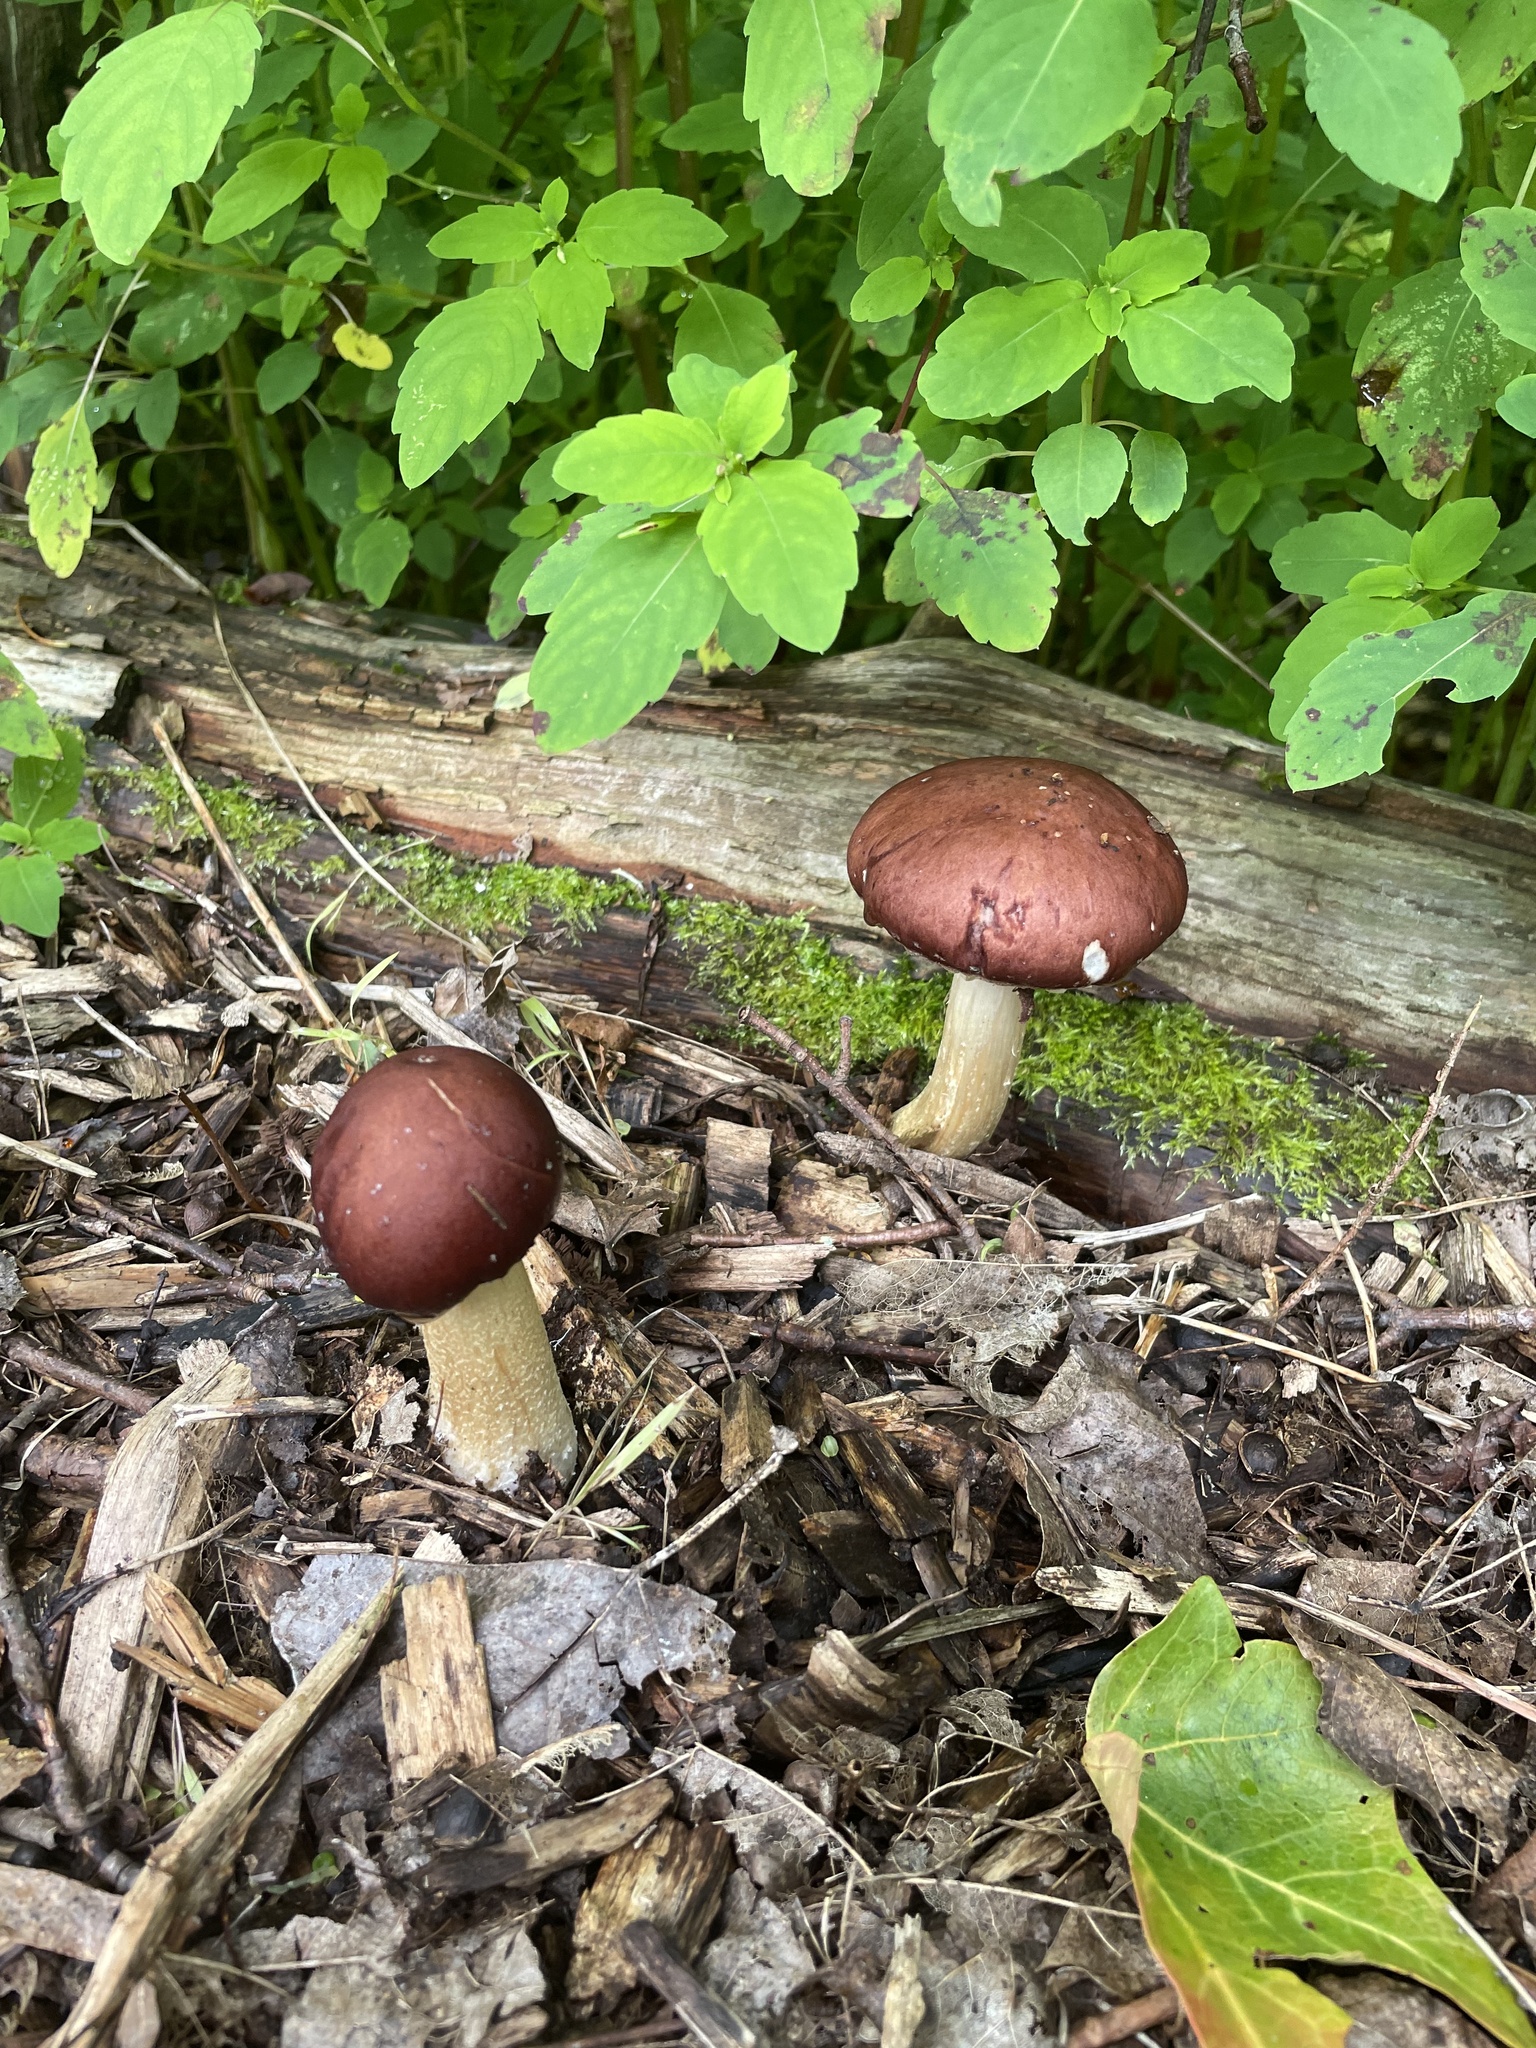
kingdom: Fungi
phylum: Basidiomycota
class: Agaricomycetes
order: Agaricales
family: Strophariaceae
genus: Stropharia
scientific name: Stropharia rugosoannulata
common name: Wine roundhead
